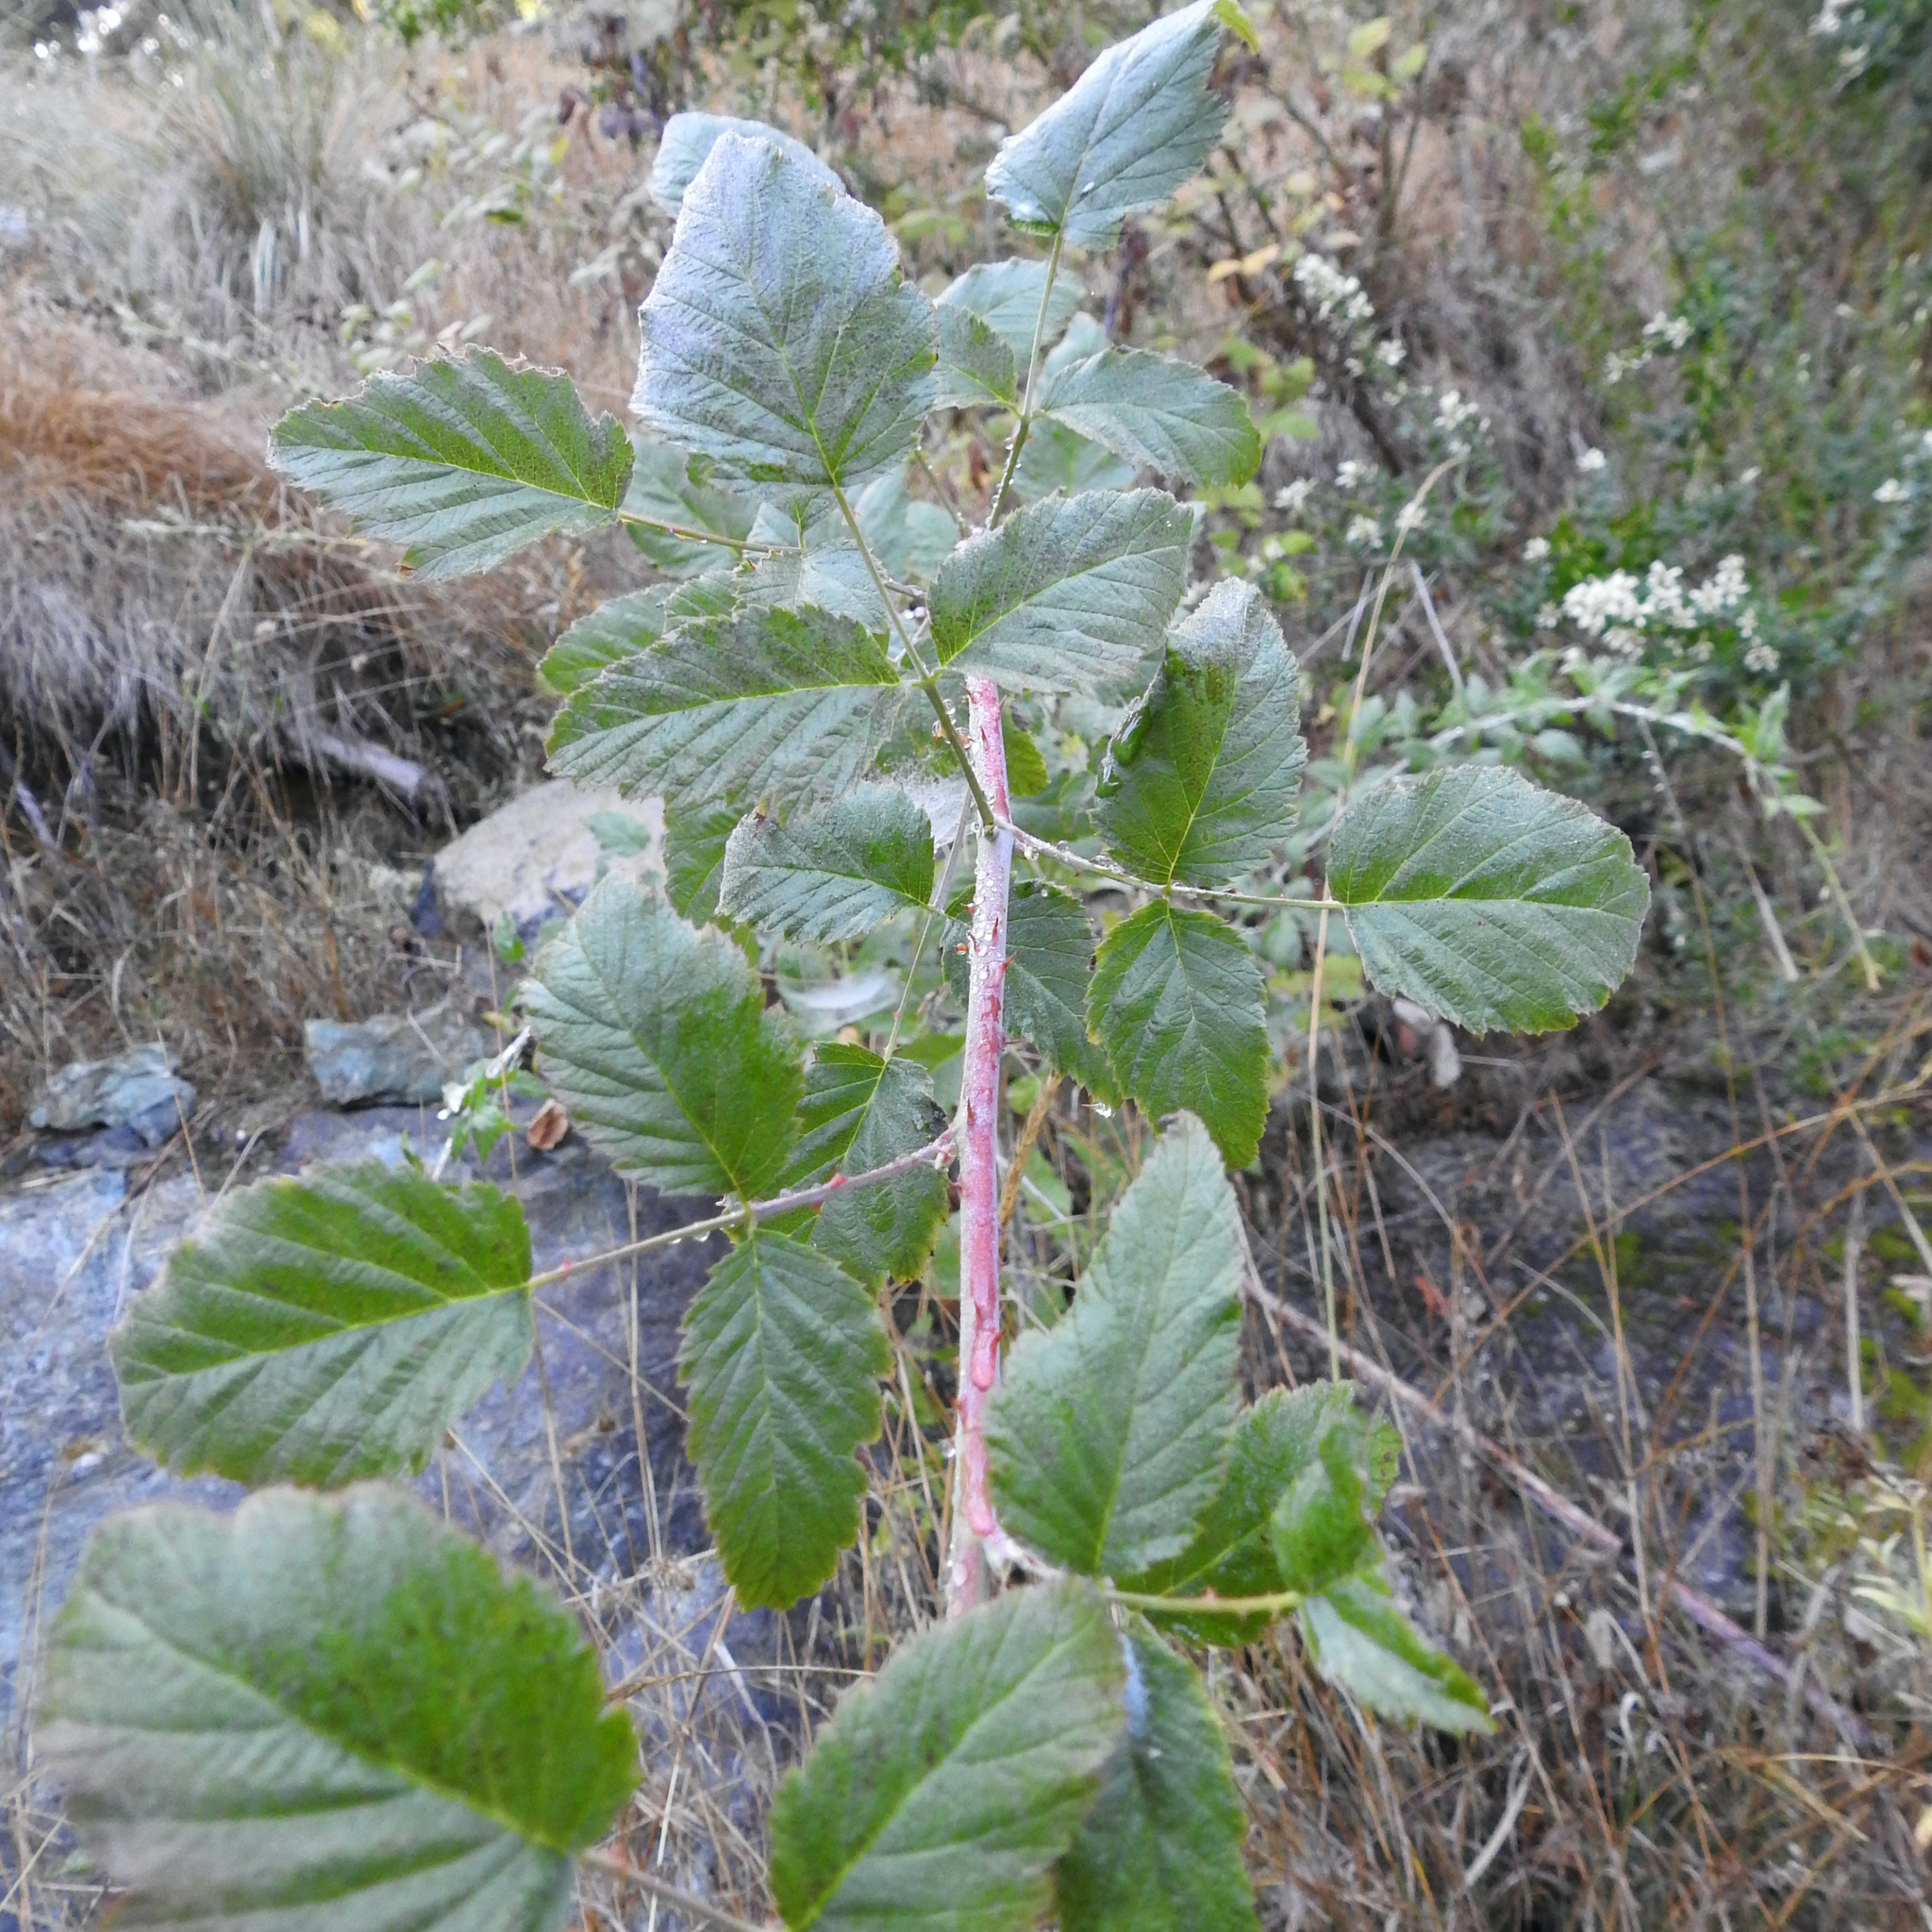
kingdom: Plantae
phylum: Tracheophyta
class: Magnoliopsida
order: Rosales
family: Rosaceae
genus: Rubus
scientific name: Rubus ursinus
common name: Pacific blackberry
